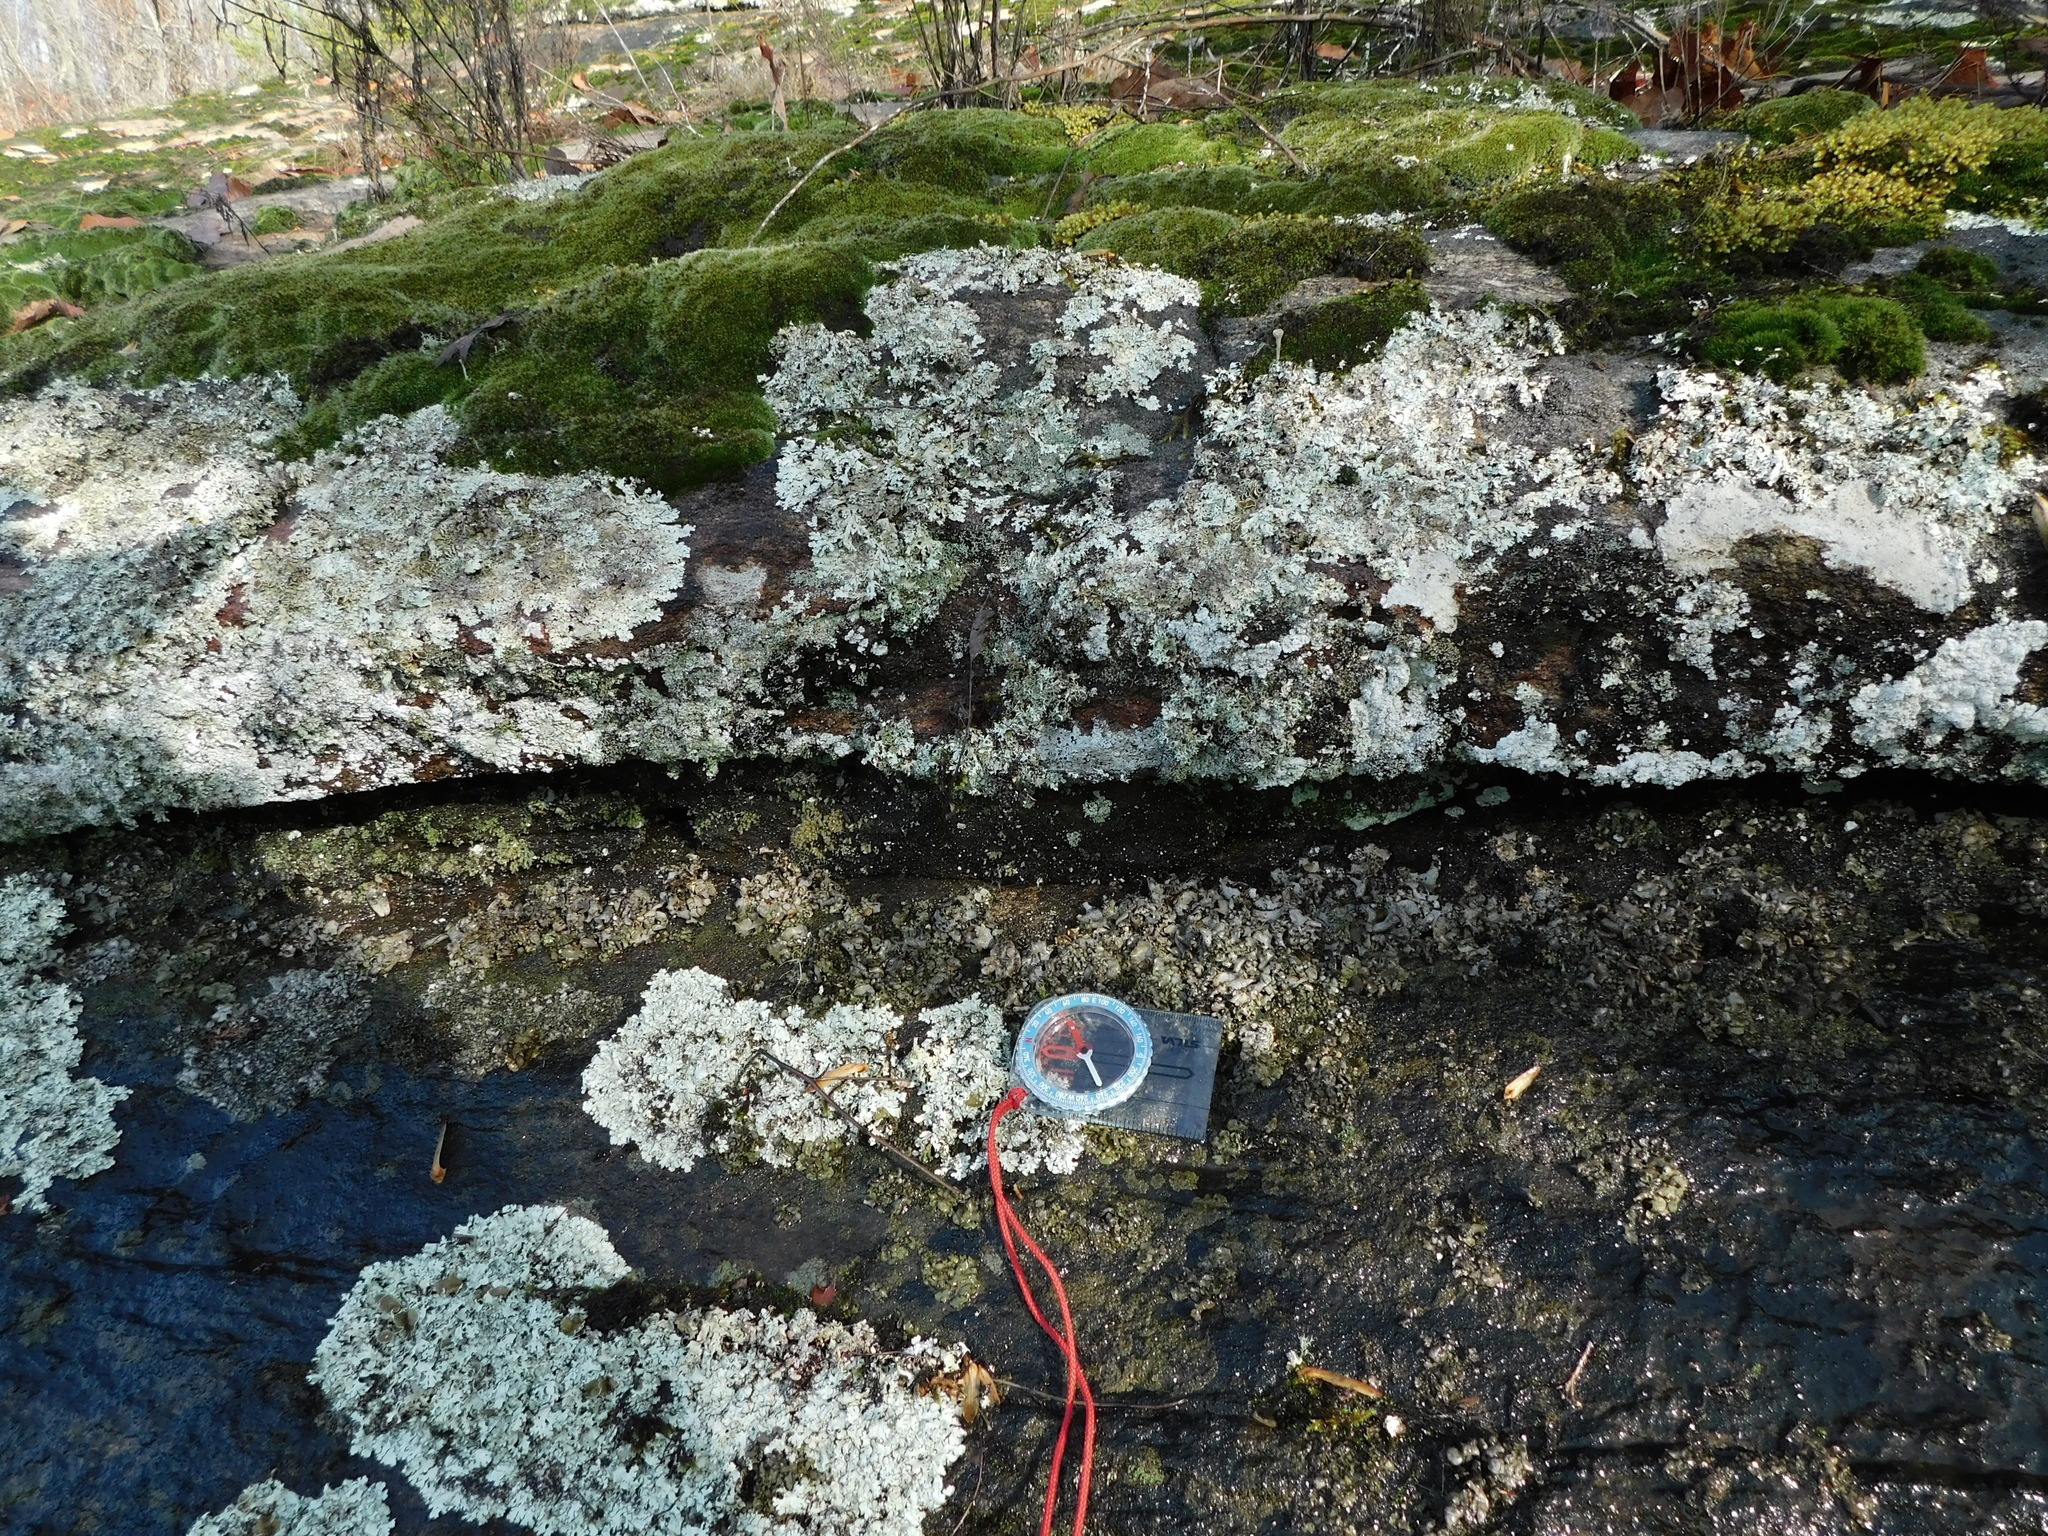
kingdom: Fungi
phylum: Ascomycota
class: Eurotiomycetes
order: Verrucariales
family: Verrucariaceae
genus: Dermatocarpon
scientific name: Dermatocarpon luridum
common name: Brook stippleback lichen
